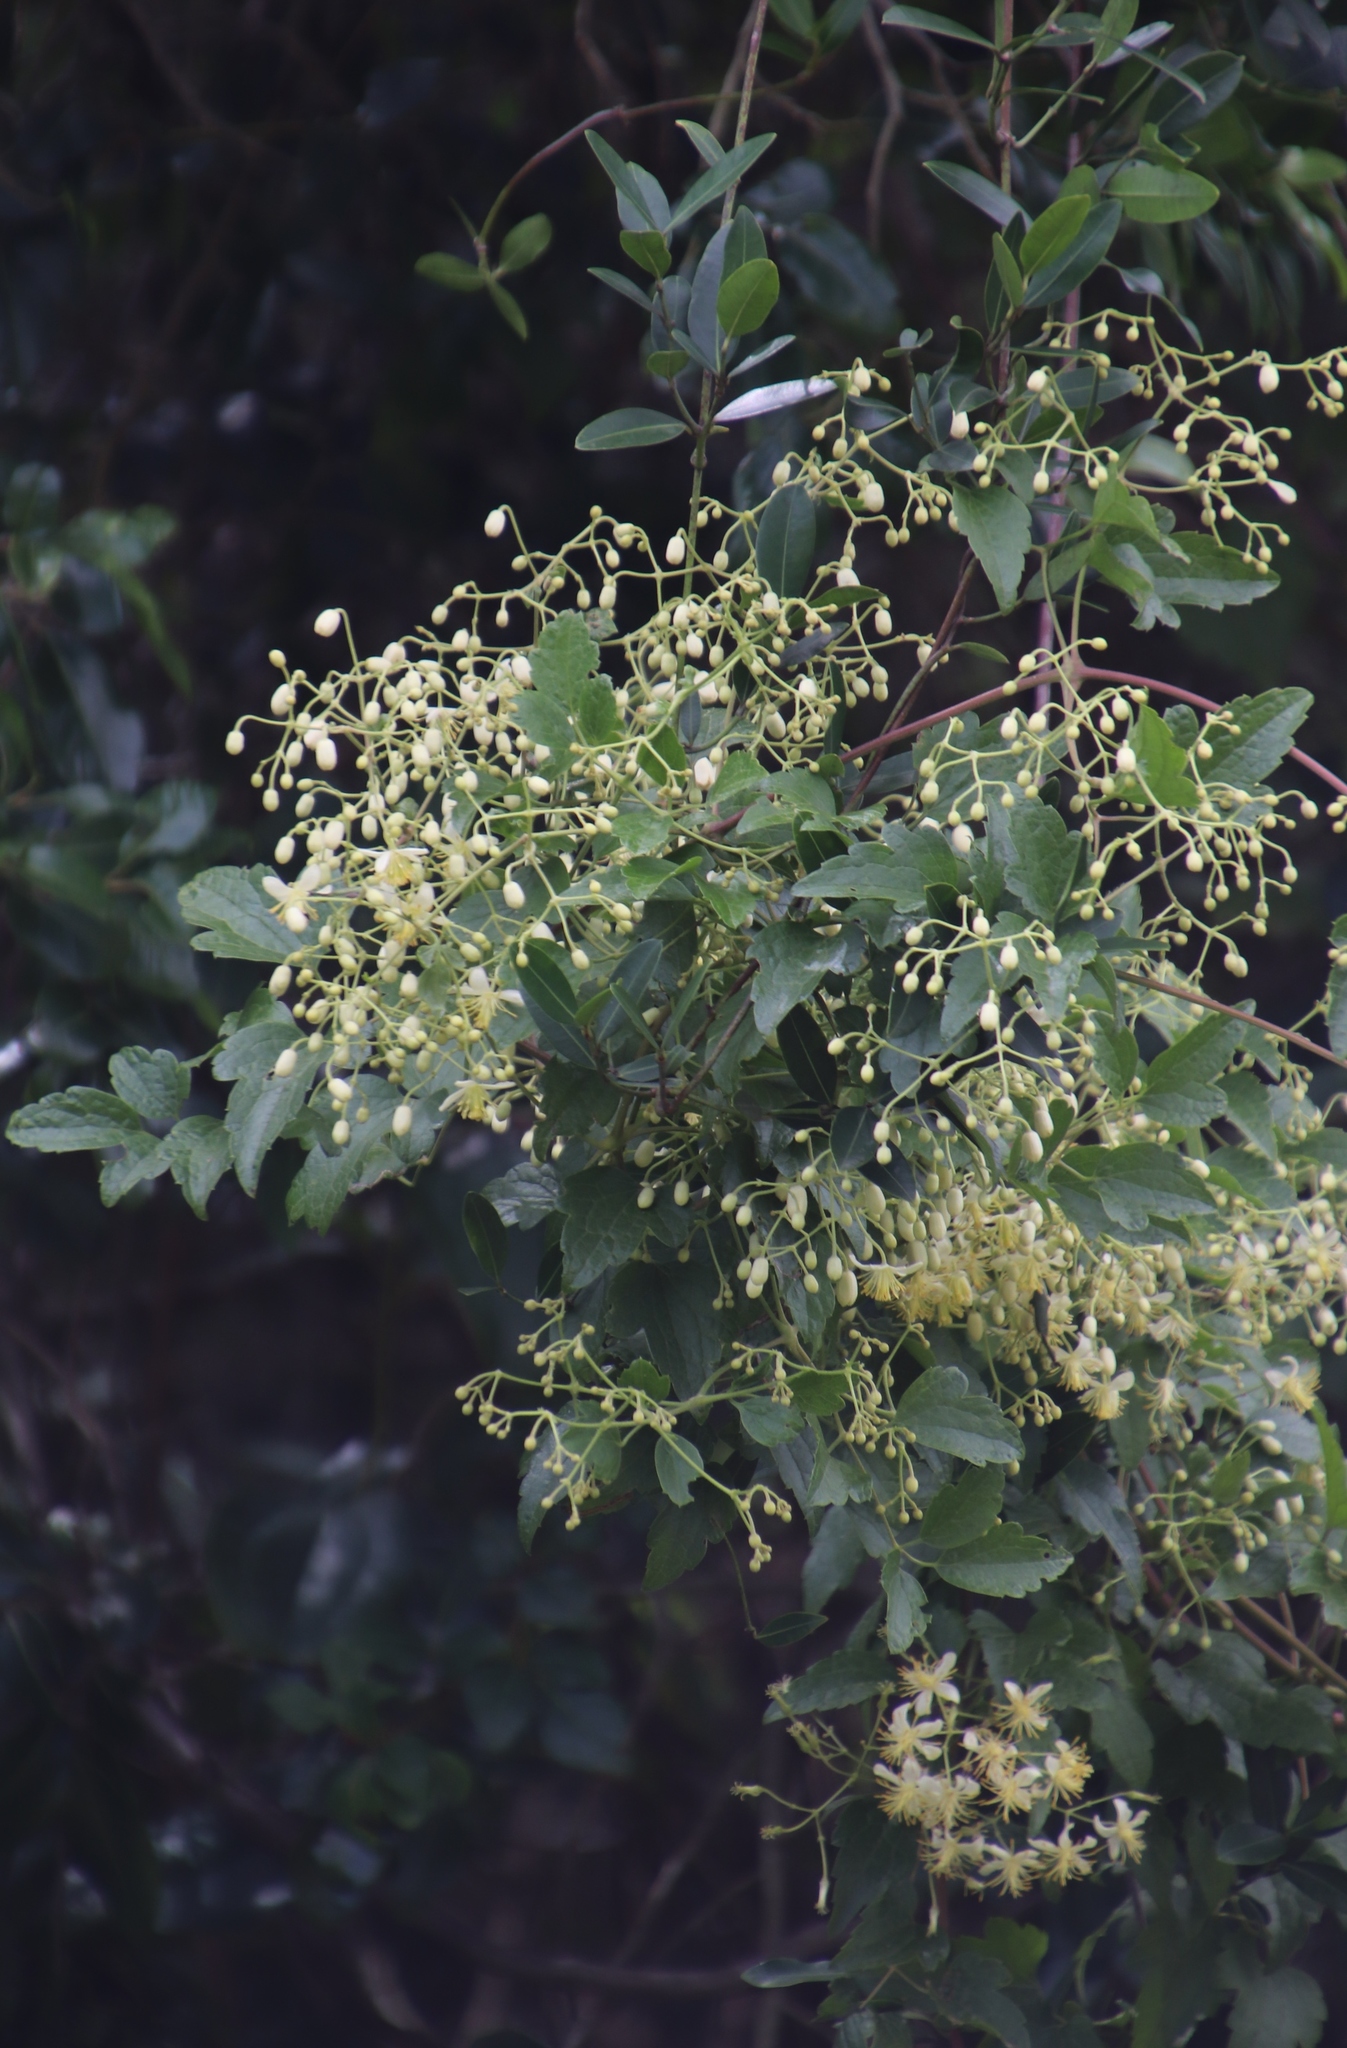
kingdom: Plantae
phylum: Tracheophyta
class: Magnoliopsida
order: Ranunculales
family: Ranunculaceae
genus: Clematis
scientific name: Clematis brachiata
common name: Traveler's-joy
